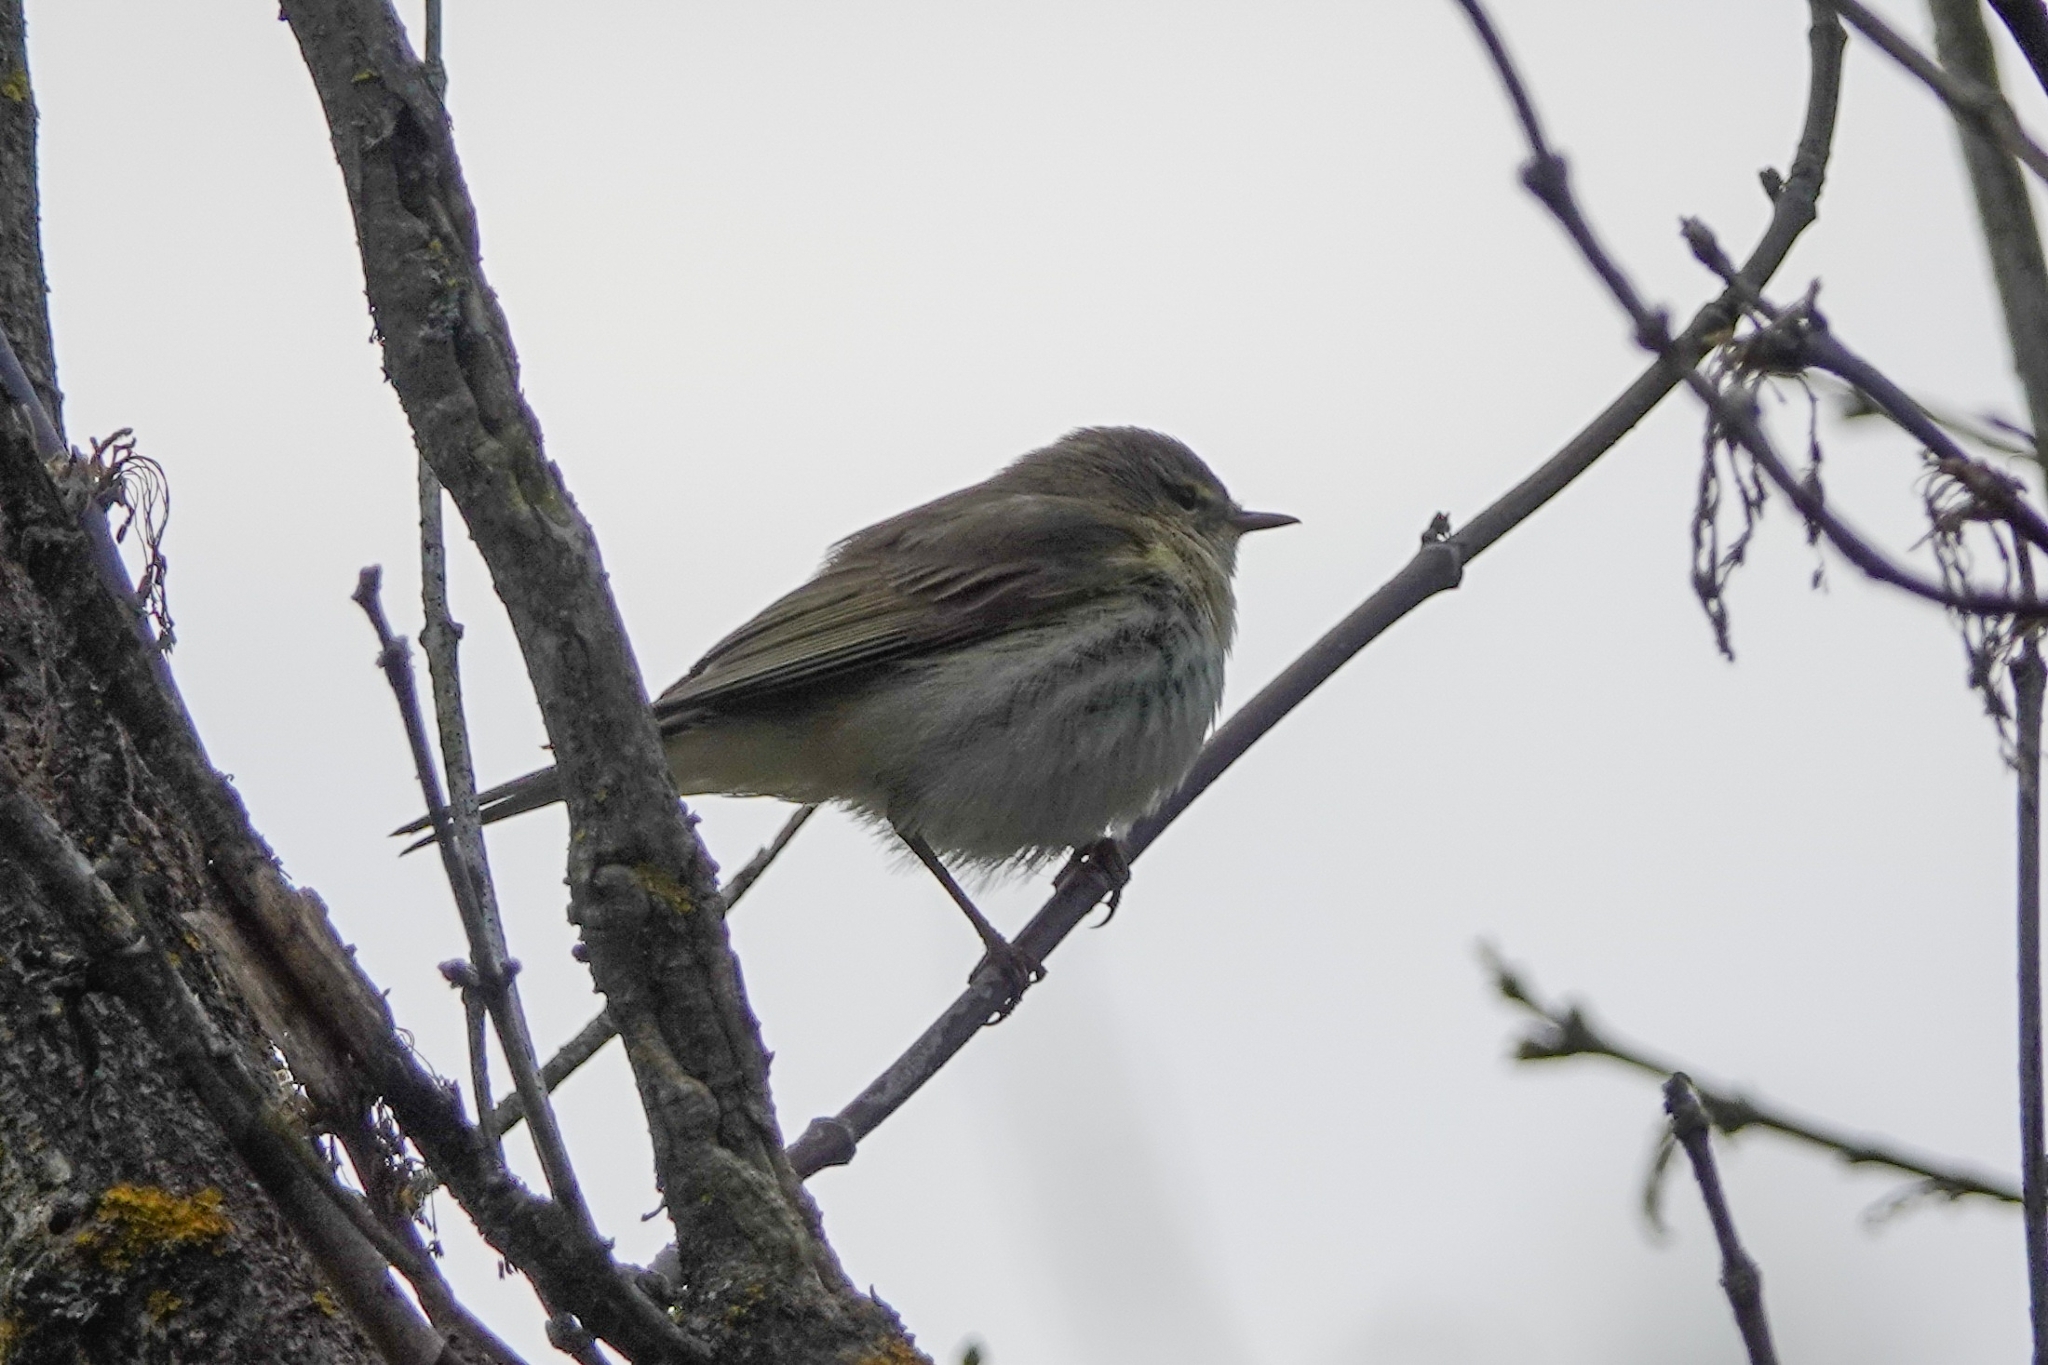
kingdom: Animalia
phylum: Chordata
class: Aves
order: Passeriformes
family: Phylloscopidae
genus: Phylloscopus
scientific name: Phylloscopus trochilus
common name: Willow warbler
